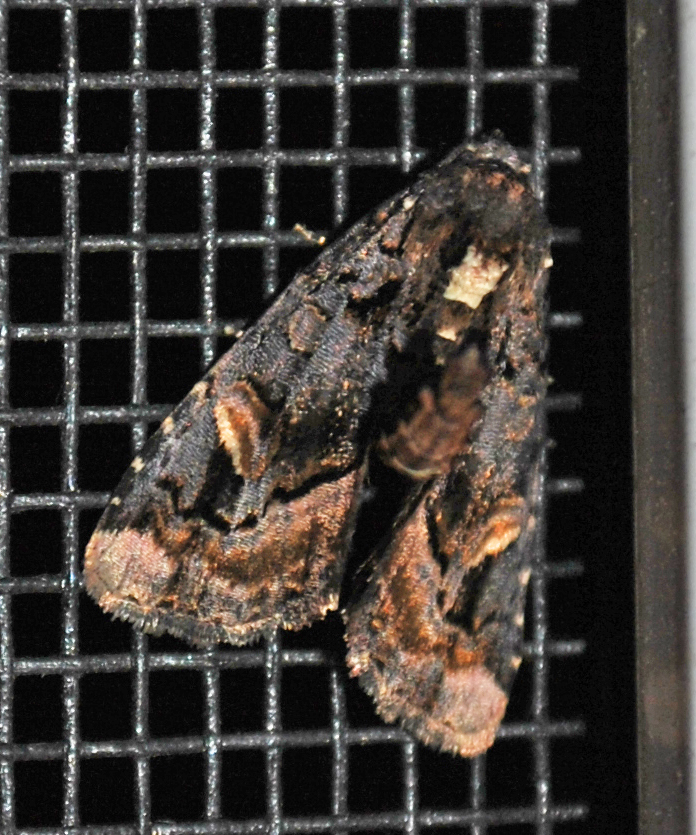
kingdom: Animalia
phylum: Arthropoda
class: Insecta
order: Lepidoptera
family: Noctuidae
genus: Homophoberia
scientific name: Homophoberia apicosa
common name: Black wedge-spot
